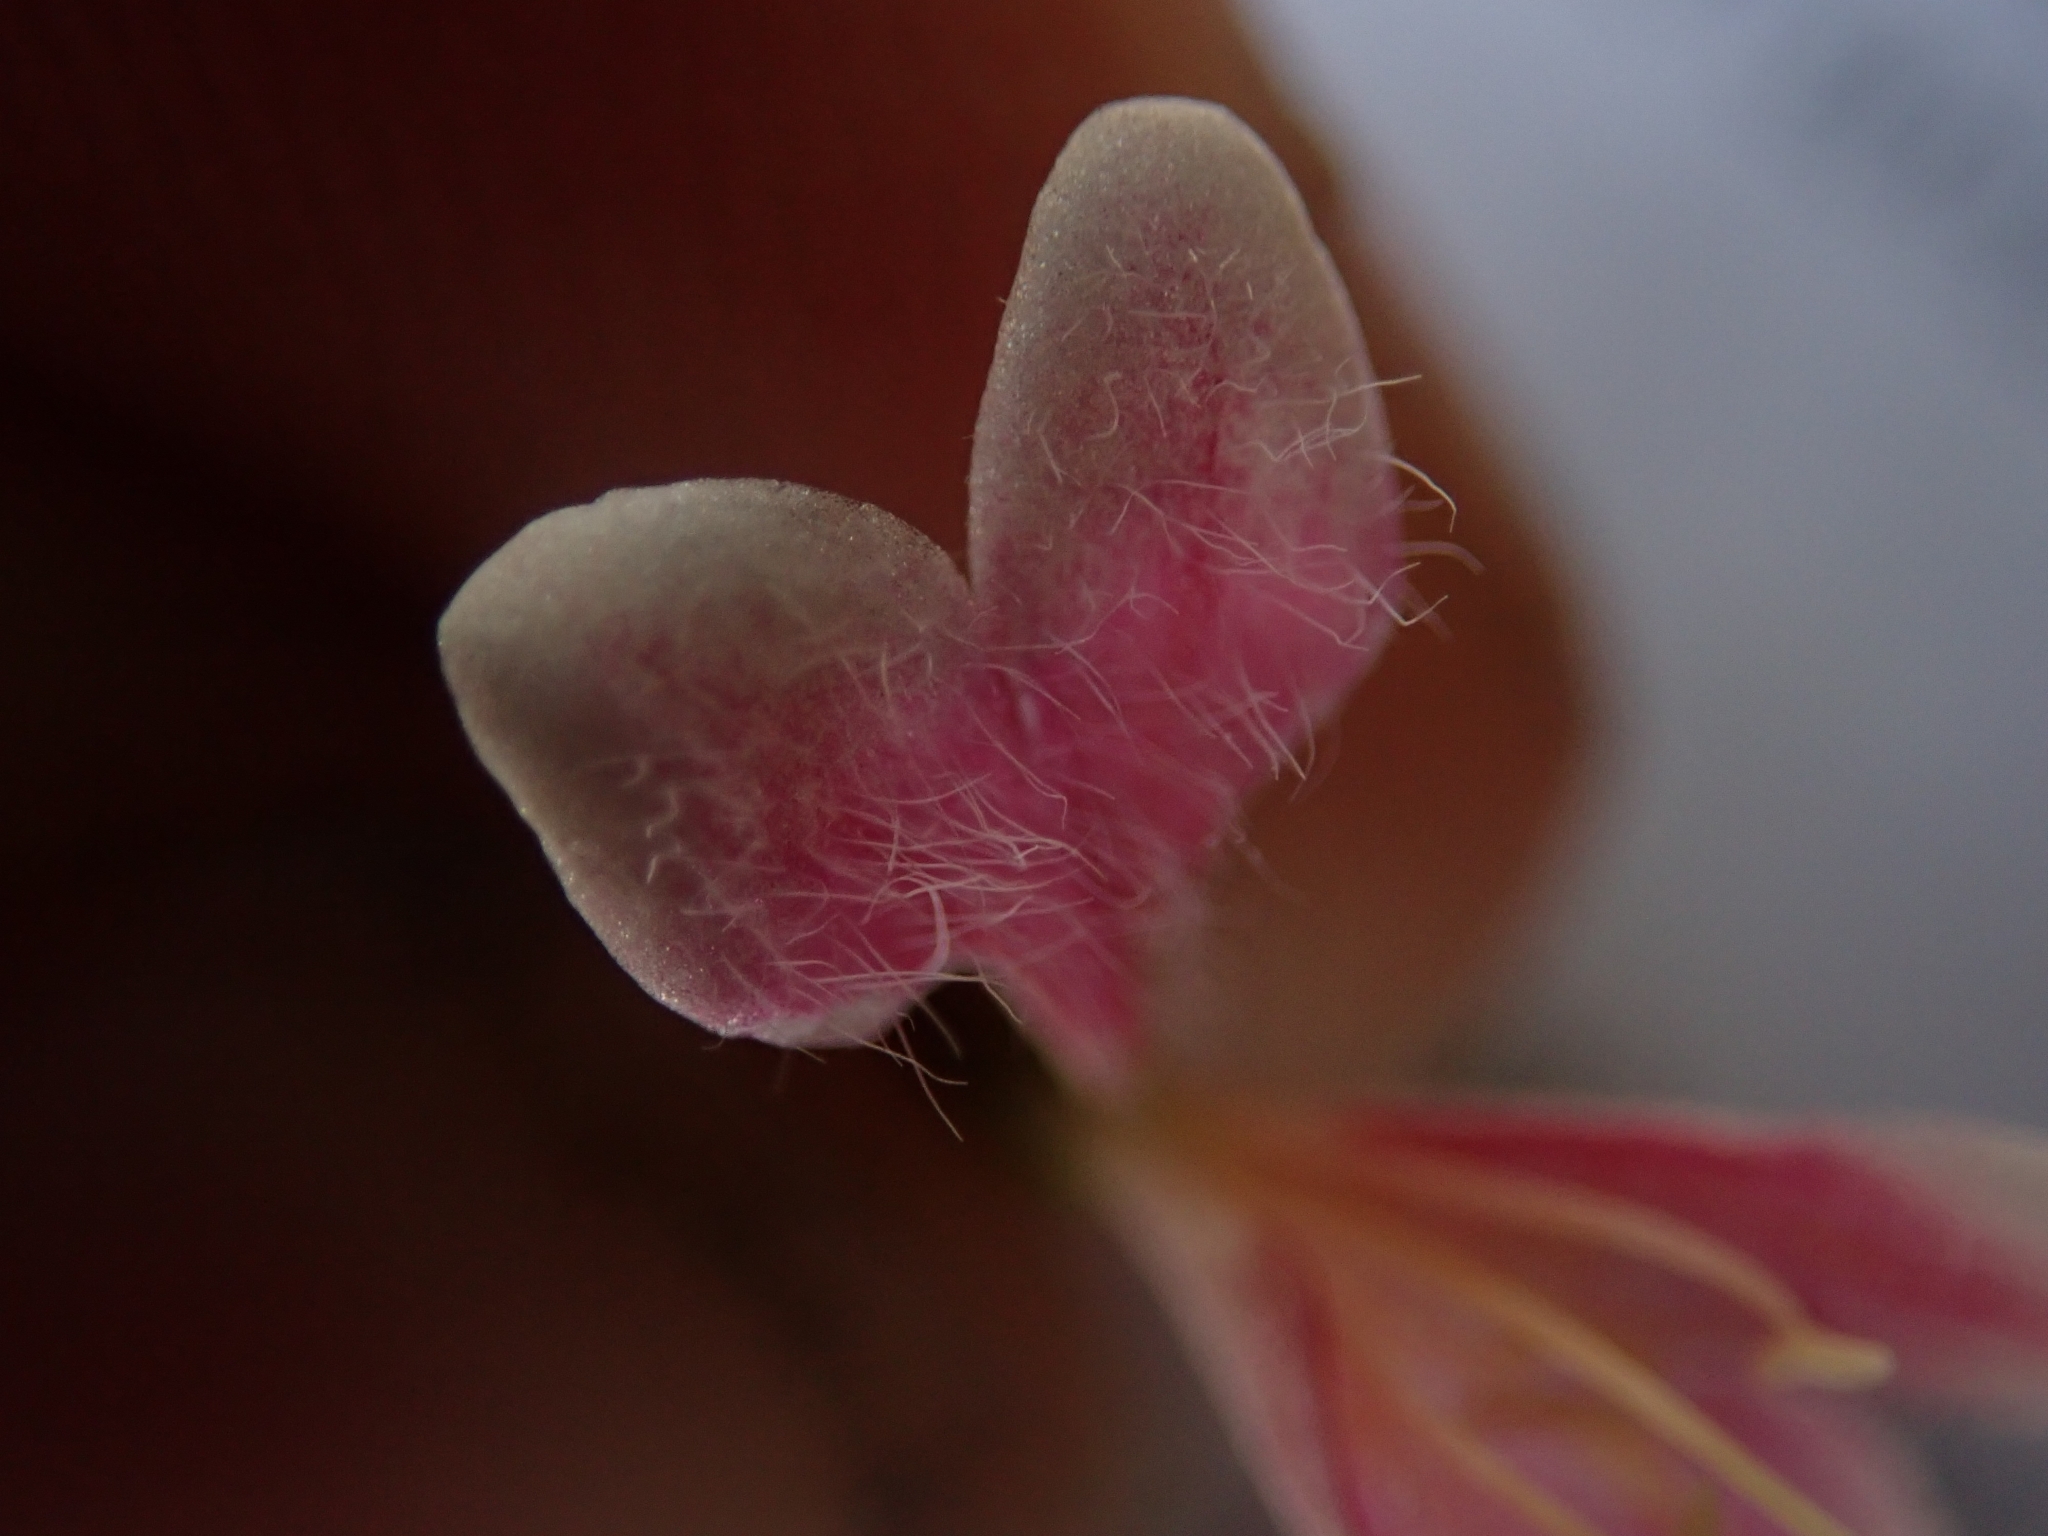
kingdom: Plantae
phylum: Tracheophyta
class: Magnoliopsida
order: Dipsacales
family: Caprifoliaceae
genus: Linnaea
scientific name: Linnaea borealis
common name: Twinflower
